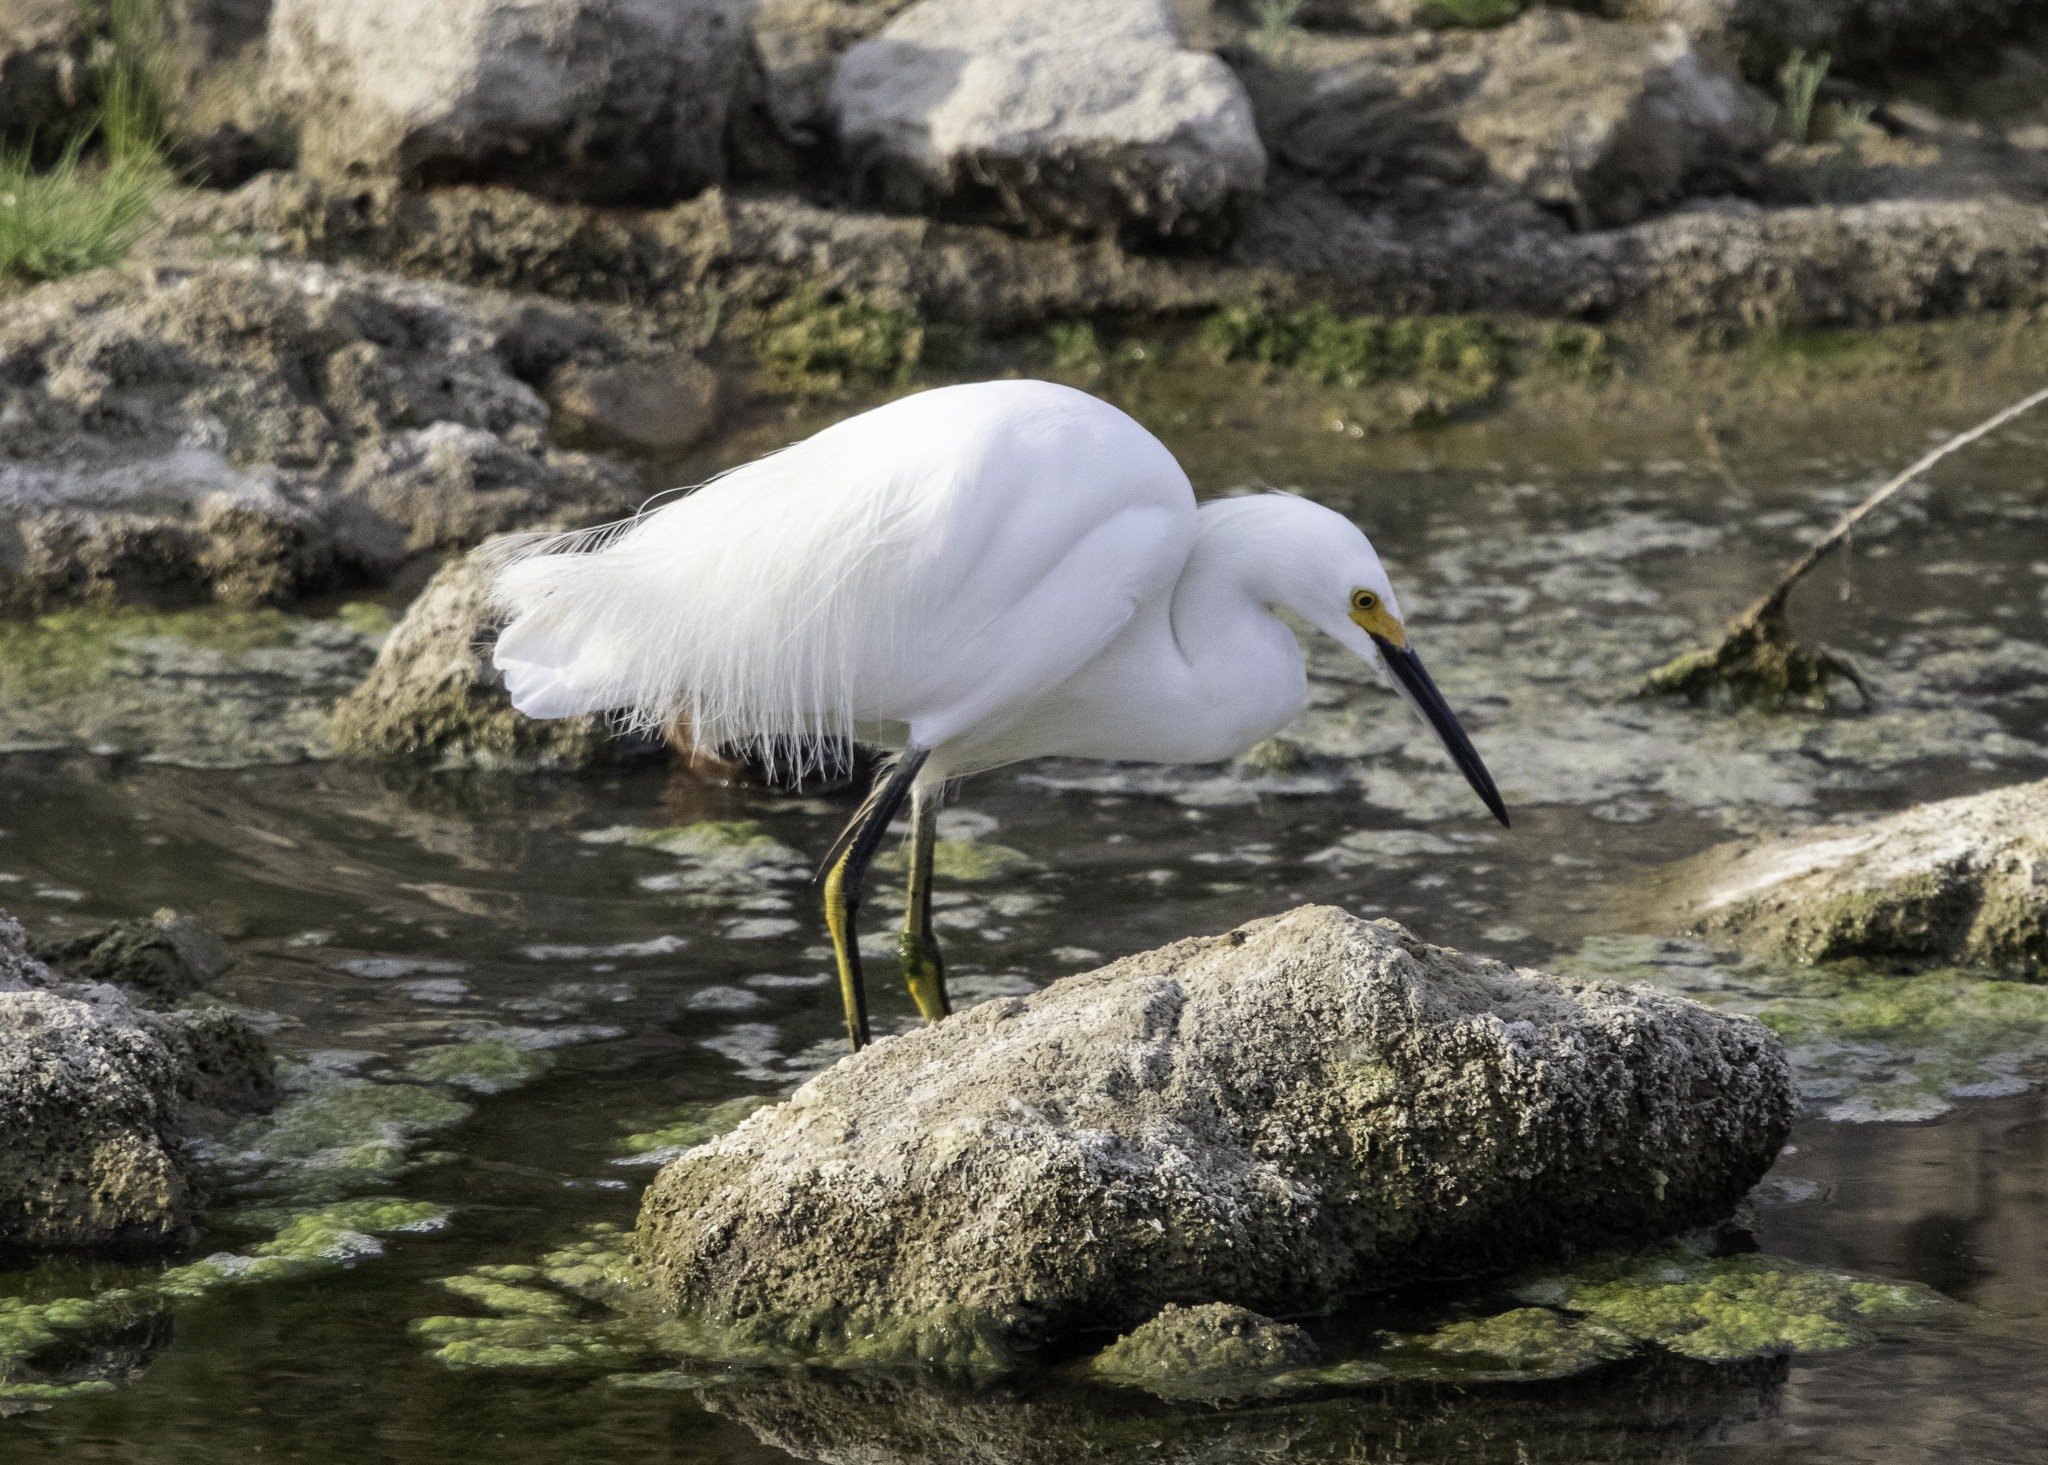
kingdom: Animalia
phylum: Chordata
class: Aves
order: Pelecaniformes
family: Ardeidae
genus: Egretta
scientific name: Egretta thula
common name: Snowy egret
